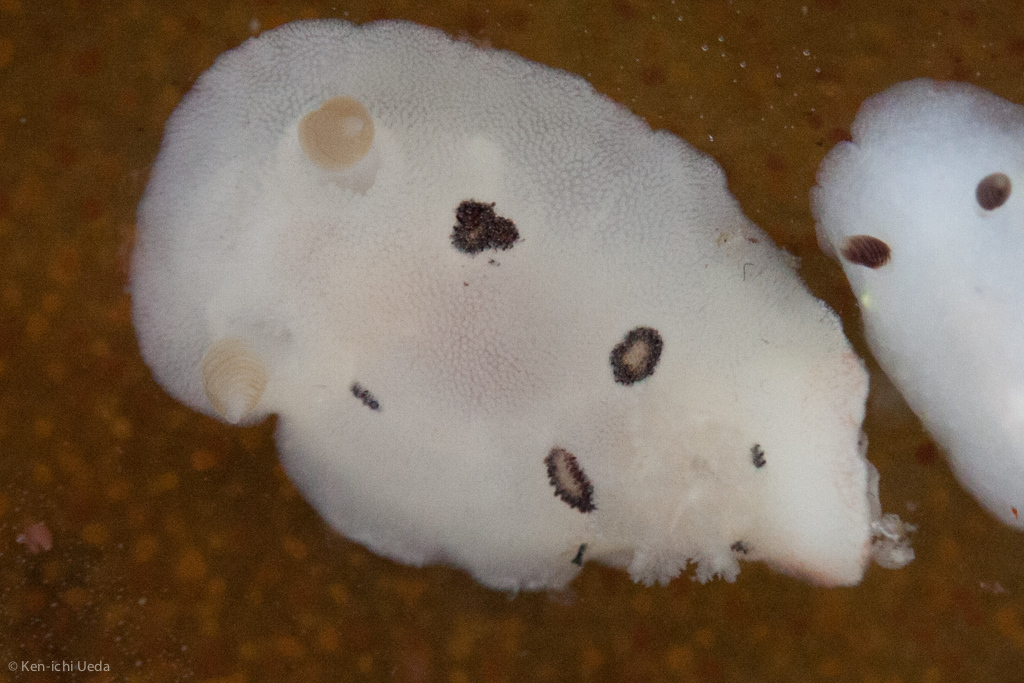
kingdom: Animalia
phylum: Mollusca
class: Gastropoda
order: Nudibranchia
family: Discodorididae
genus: Diaulula
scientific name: Diaulula sandiegensis
